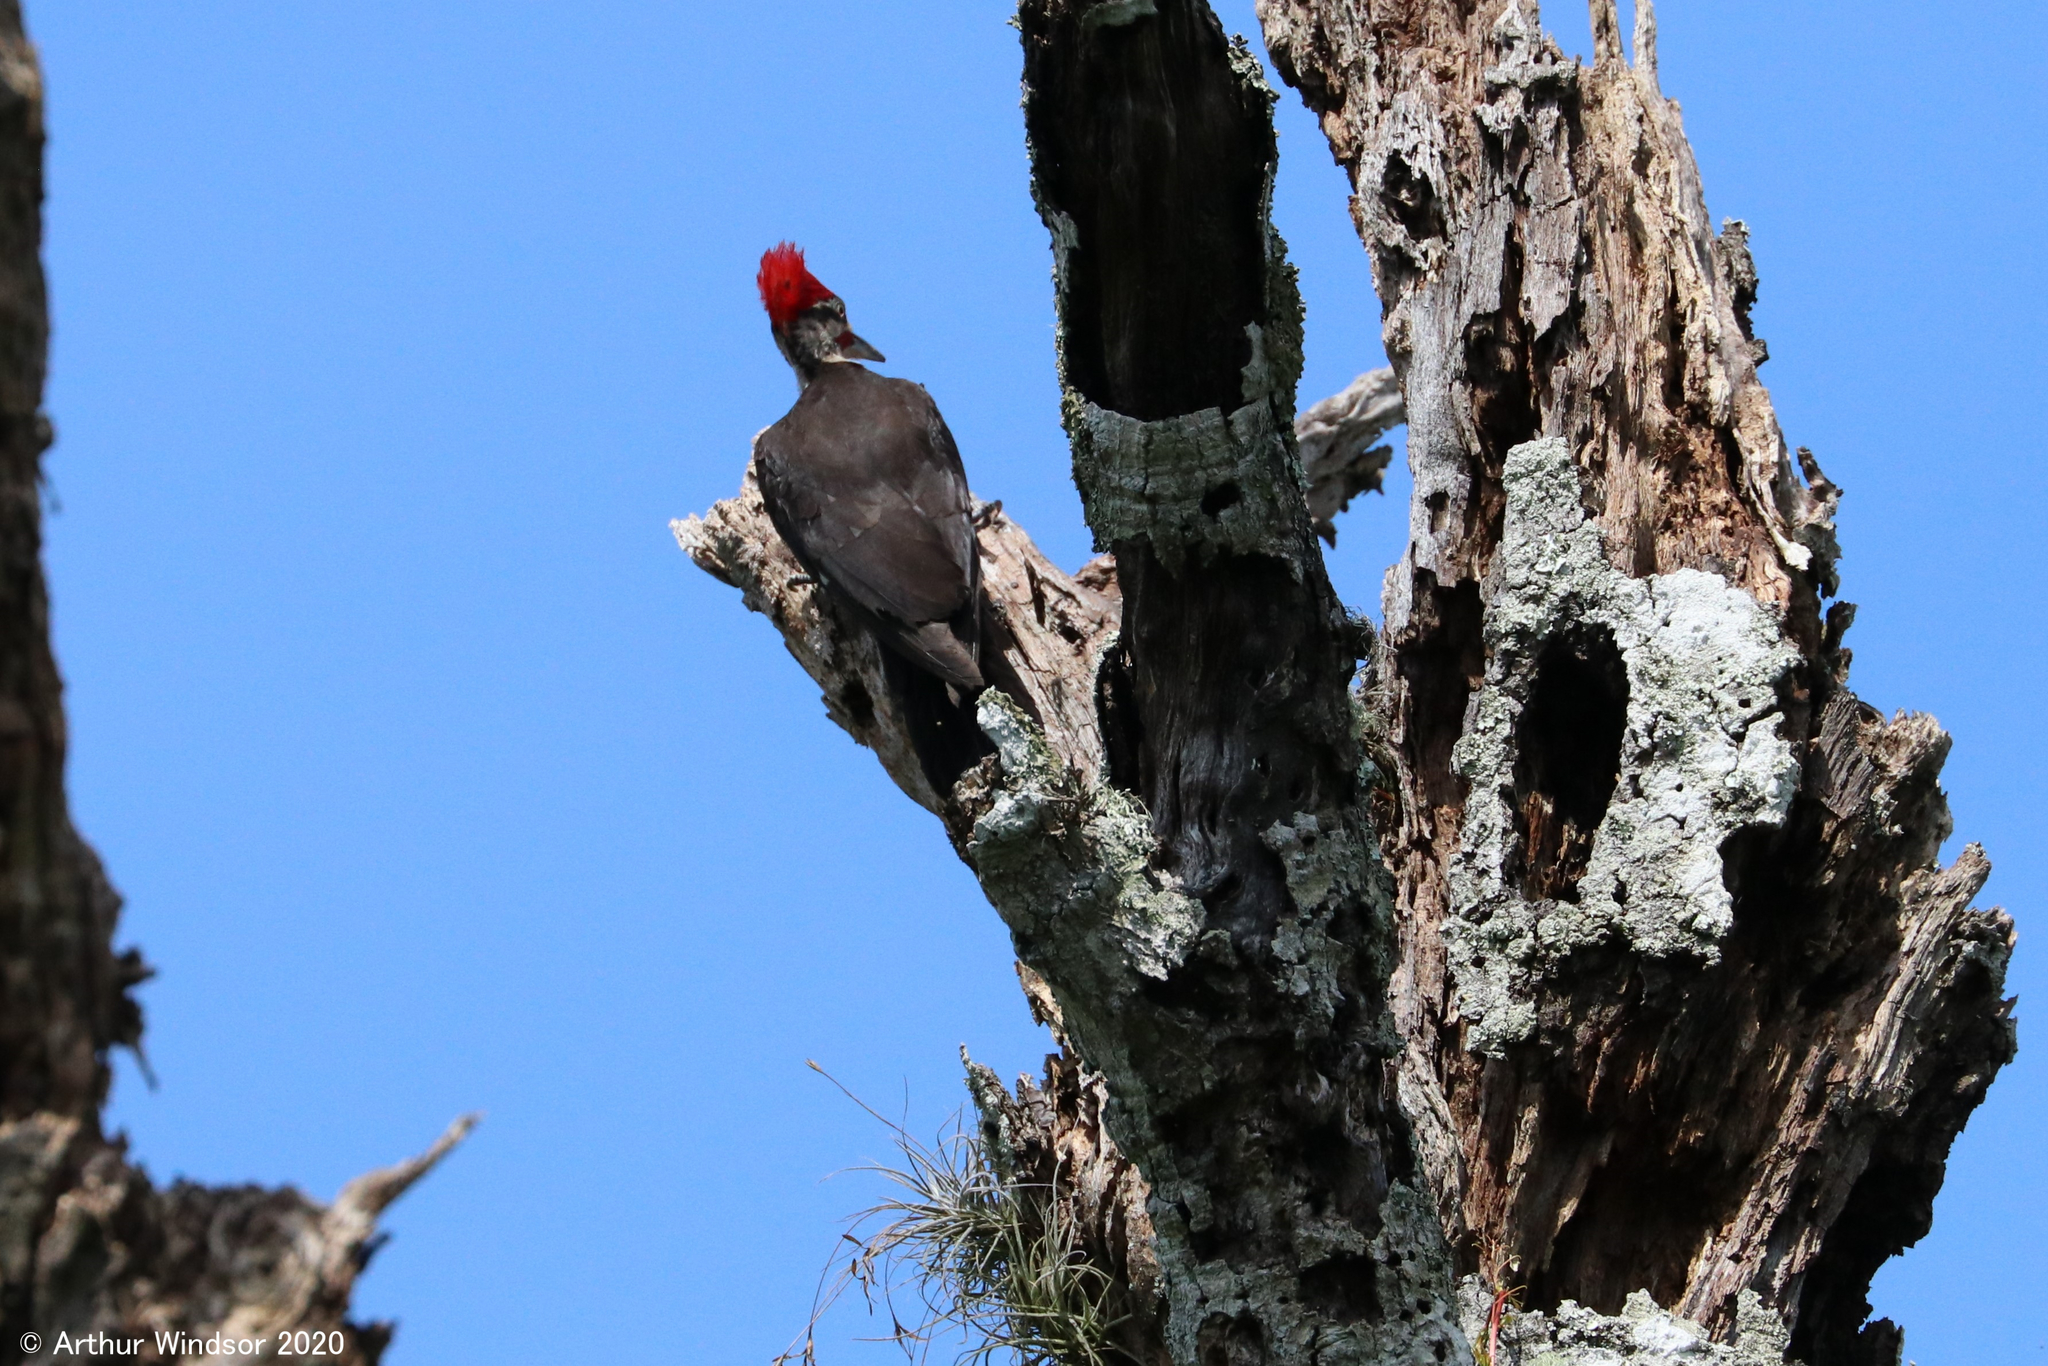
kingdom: Animalia
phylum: Chordata
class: Aves
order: Piciformes
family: Picidae
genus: Dryocopus
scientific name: Dryocopus pileatus
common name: Pileated woodpecker
